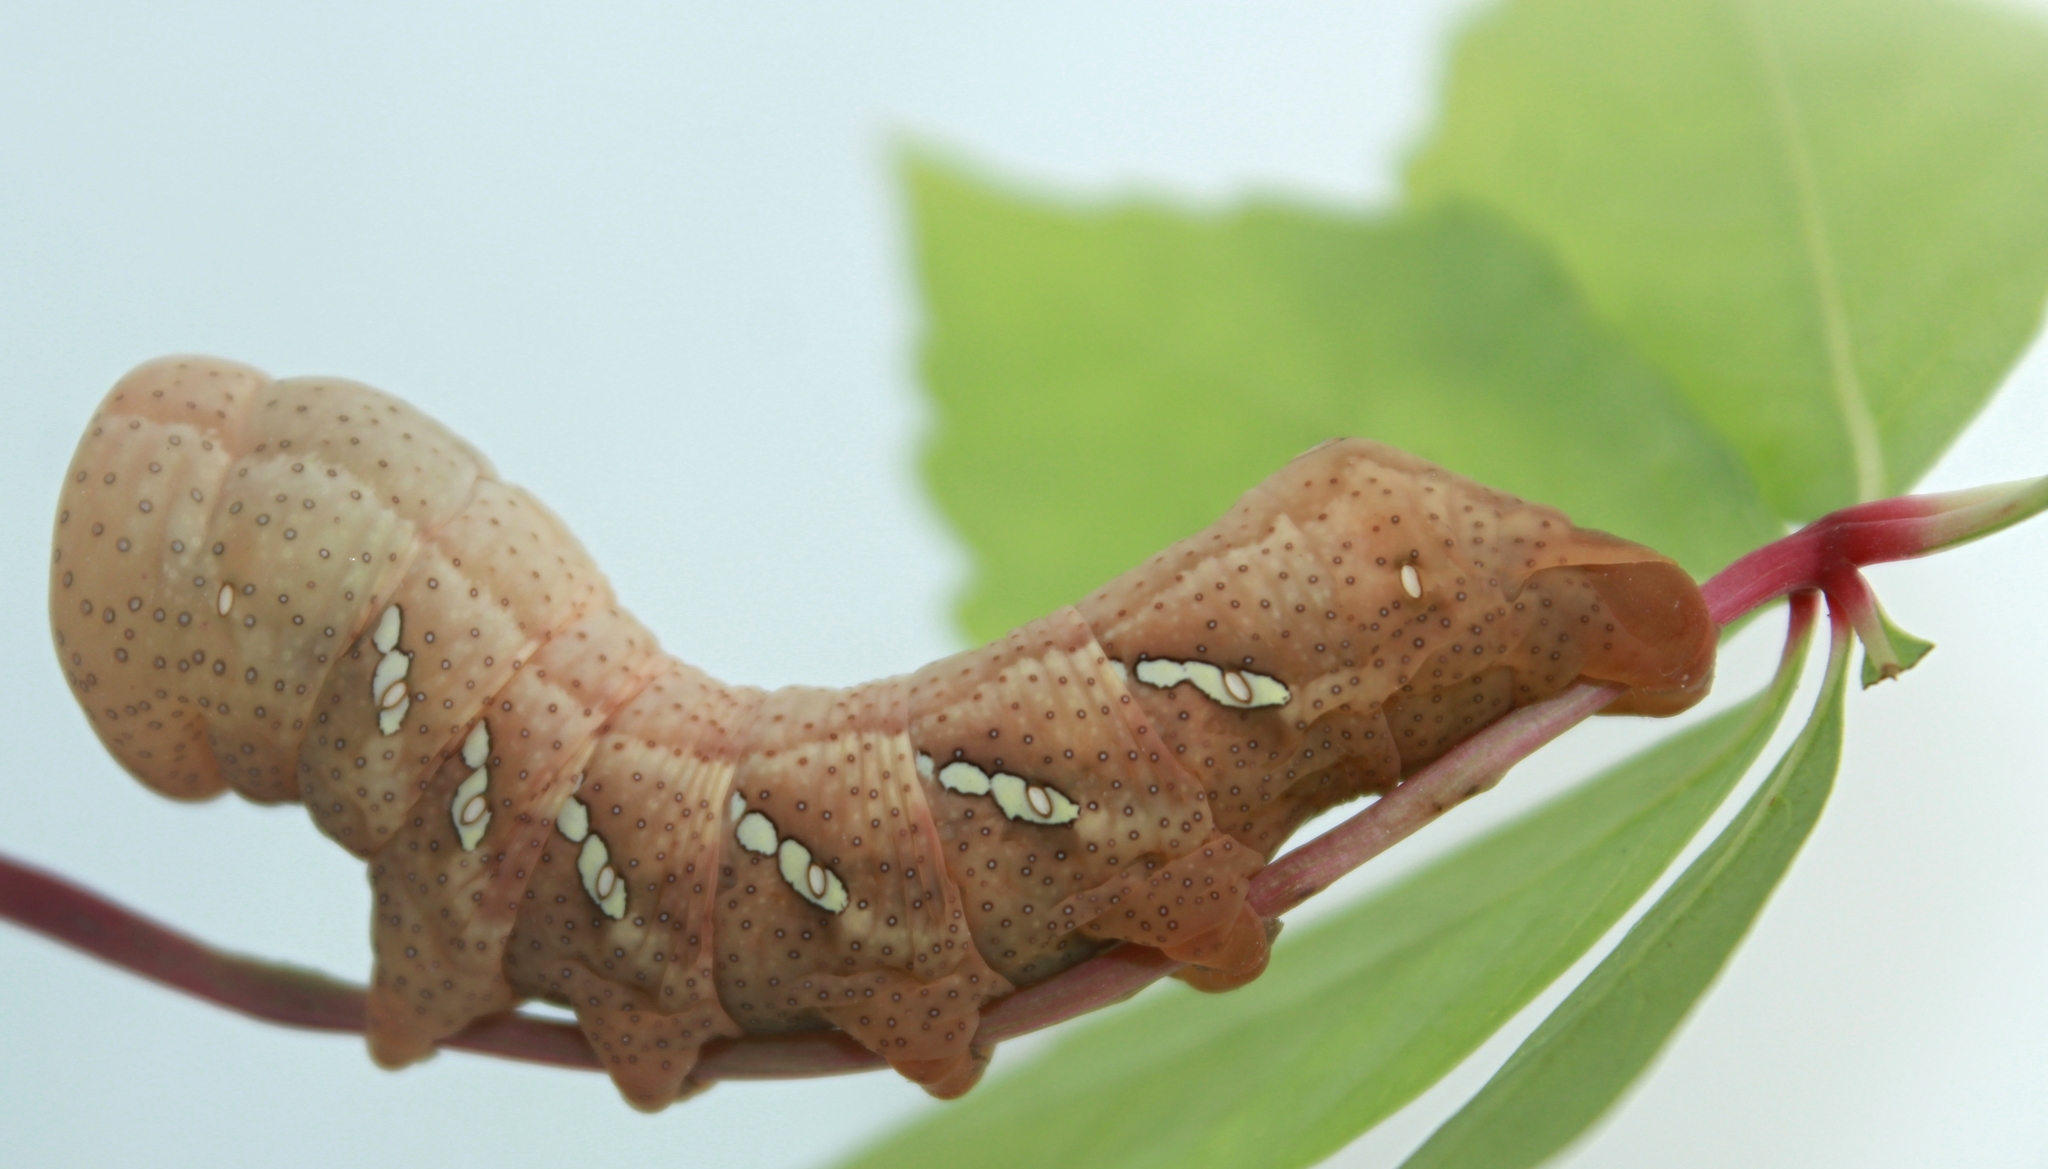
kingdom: Animalia
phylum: Arthropoda
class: Insecta
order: Lepidoptera
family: Sphingidae
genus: Eumorpha
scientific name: Eumorpha achemon
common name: Achemon sphinx
